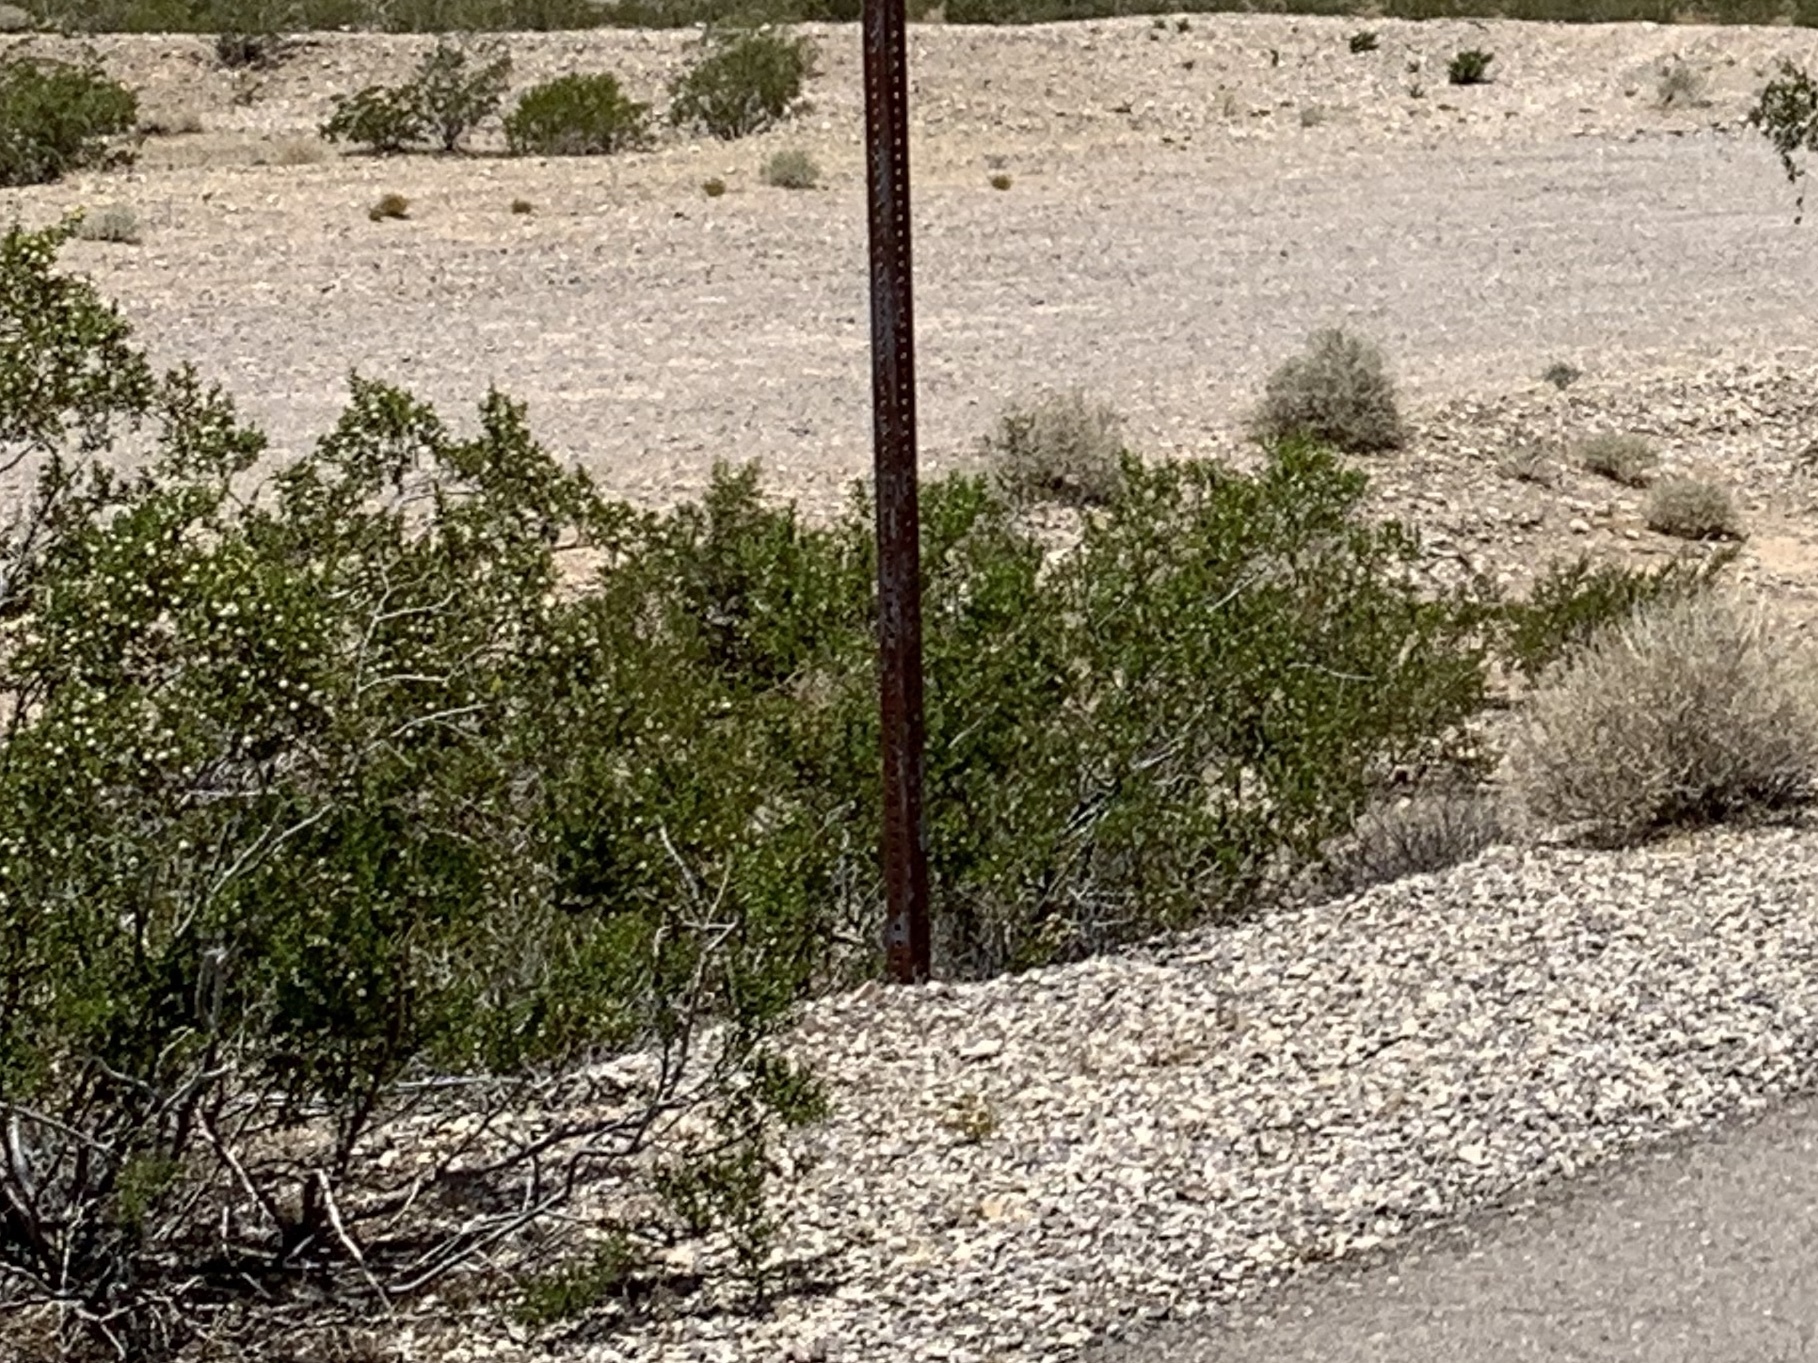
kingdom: Plantae
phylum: Tracheophyta
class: Magnoliopsida
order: Zygophyllales
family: Zygophyllaceae
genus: Larrea
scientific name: Larrea tridentata
